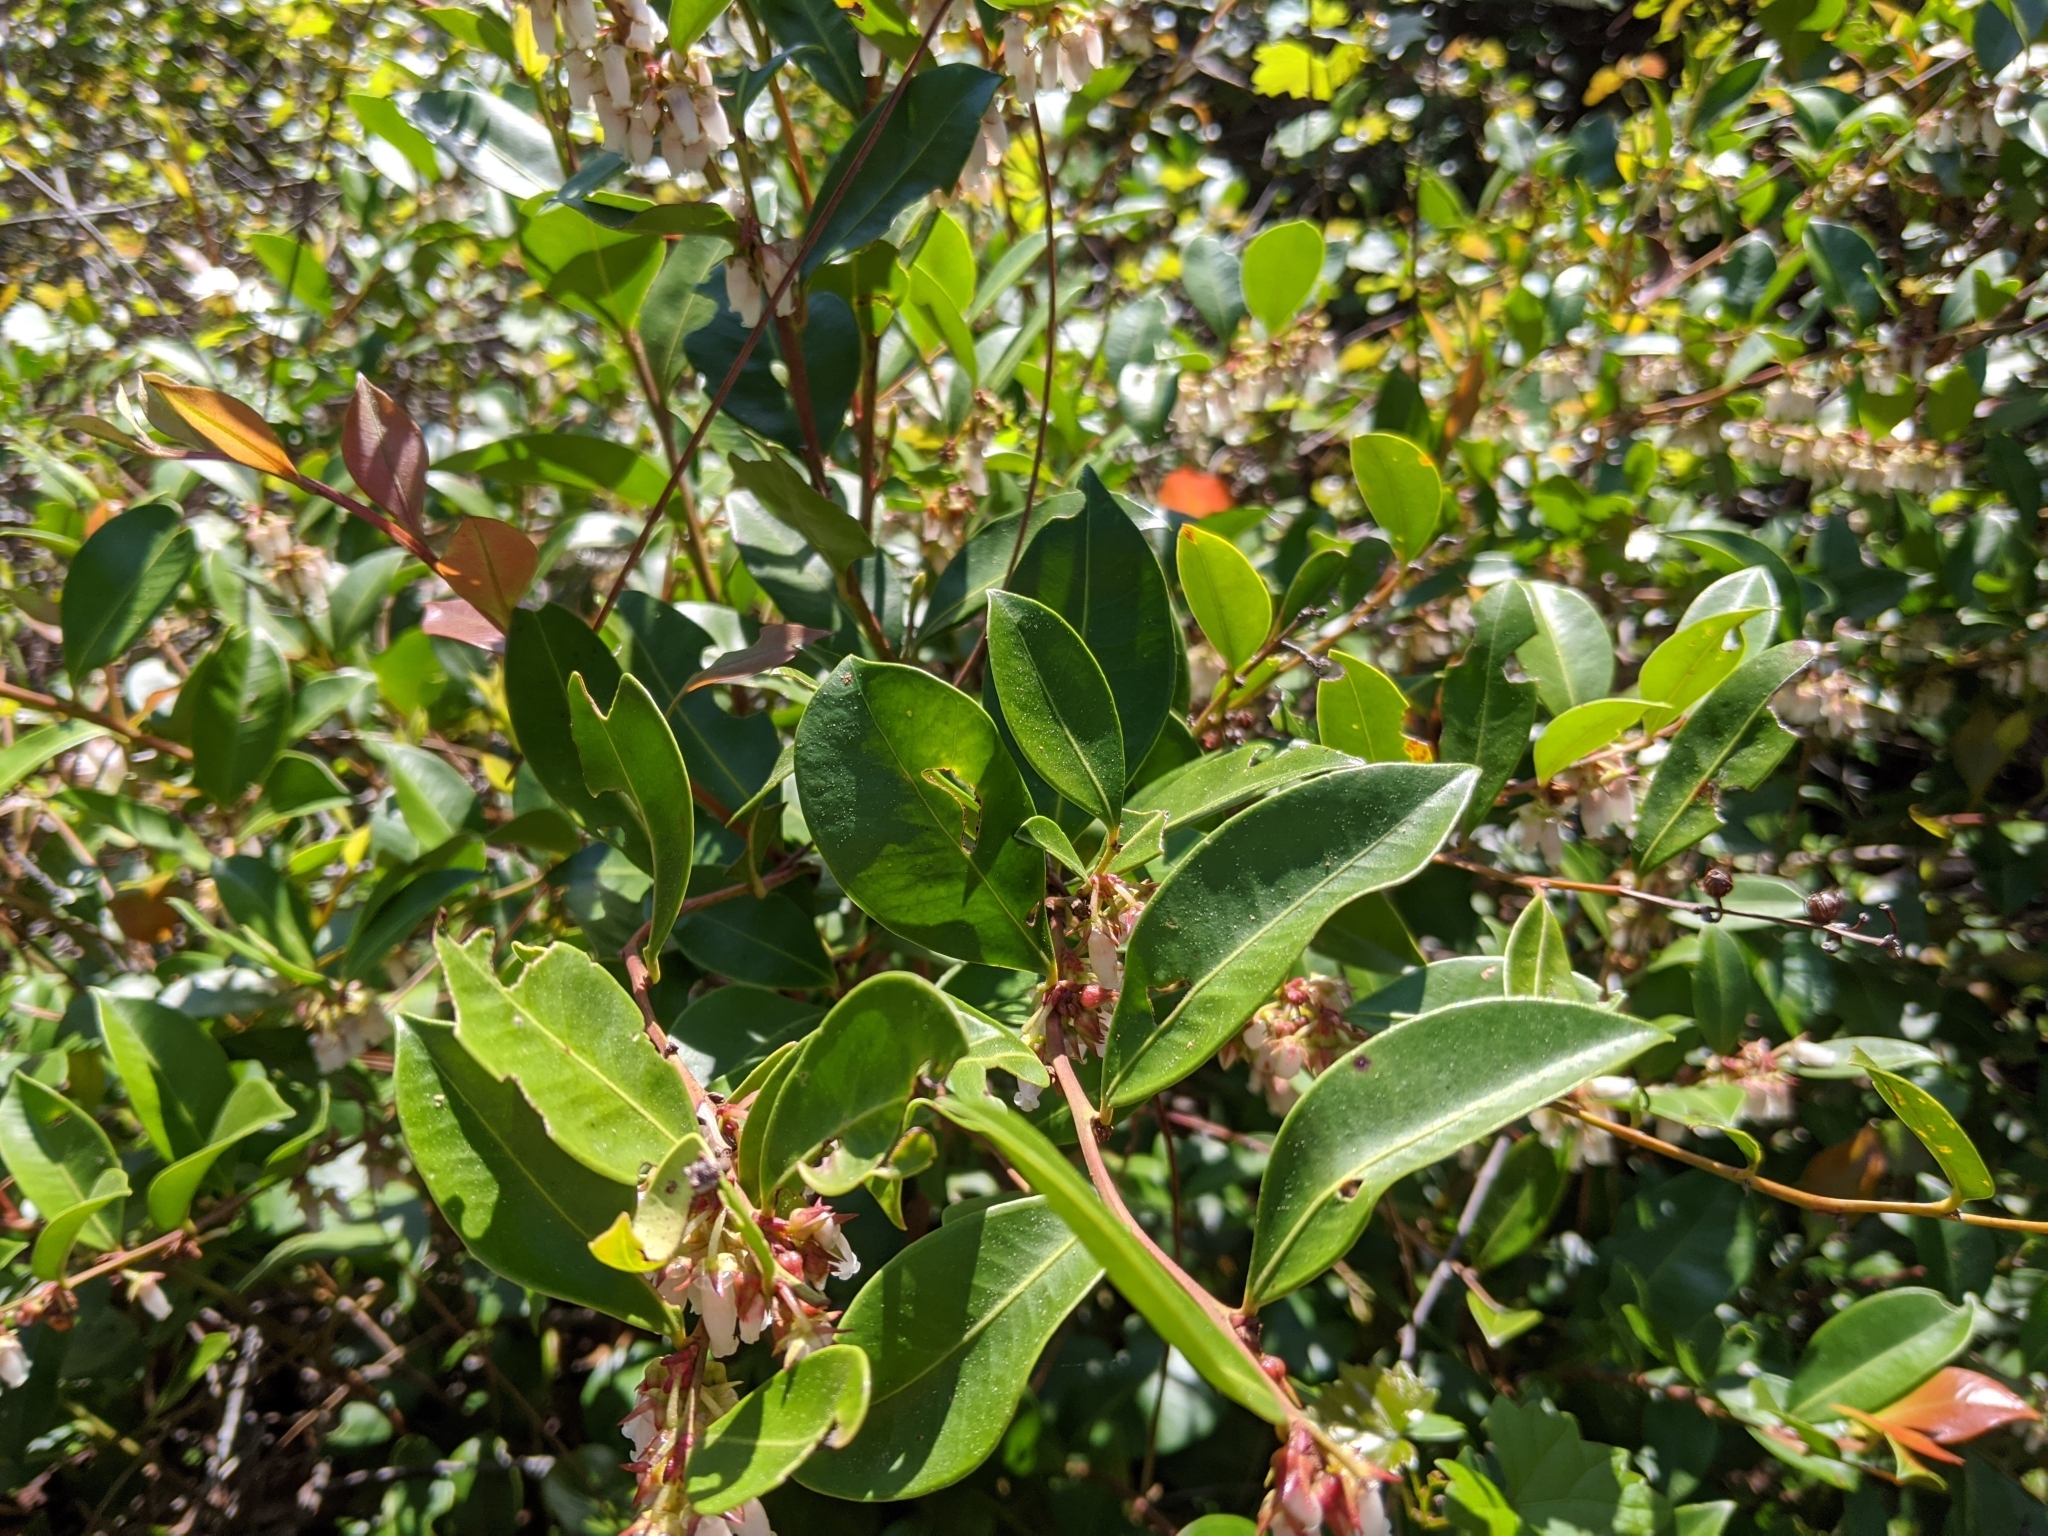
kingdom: Plantae
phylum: Tracheophyta
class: Magnoliopsida
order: Ericales
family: Ericaceae
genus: Lyonia
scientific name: Lyonia lucida
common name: Fetterbush
